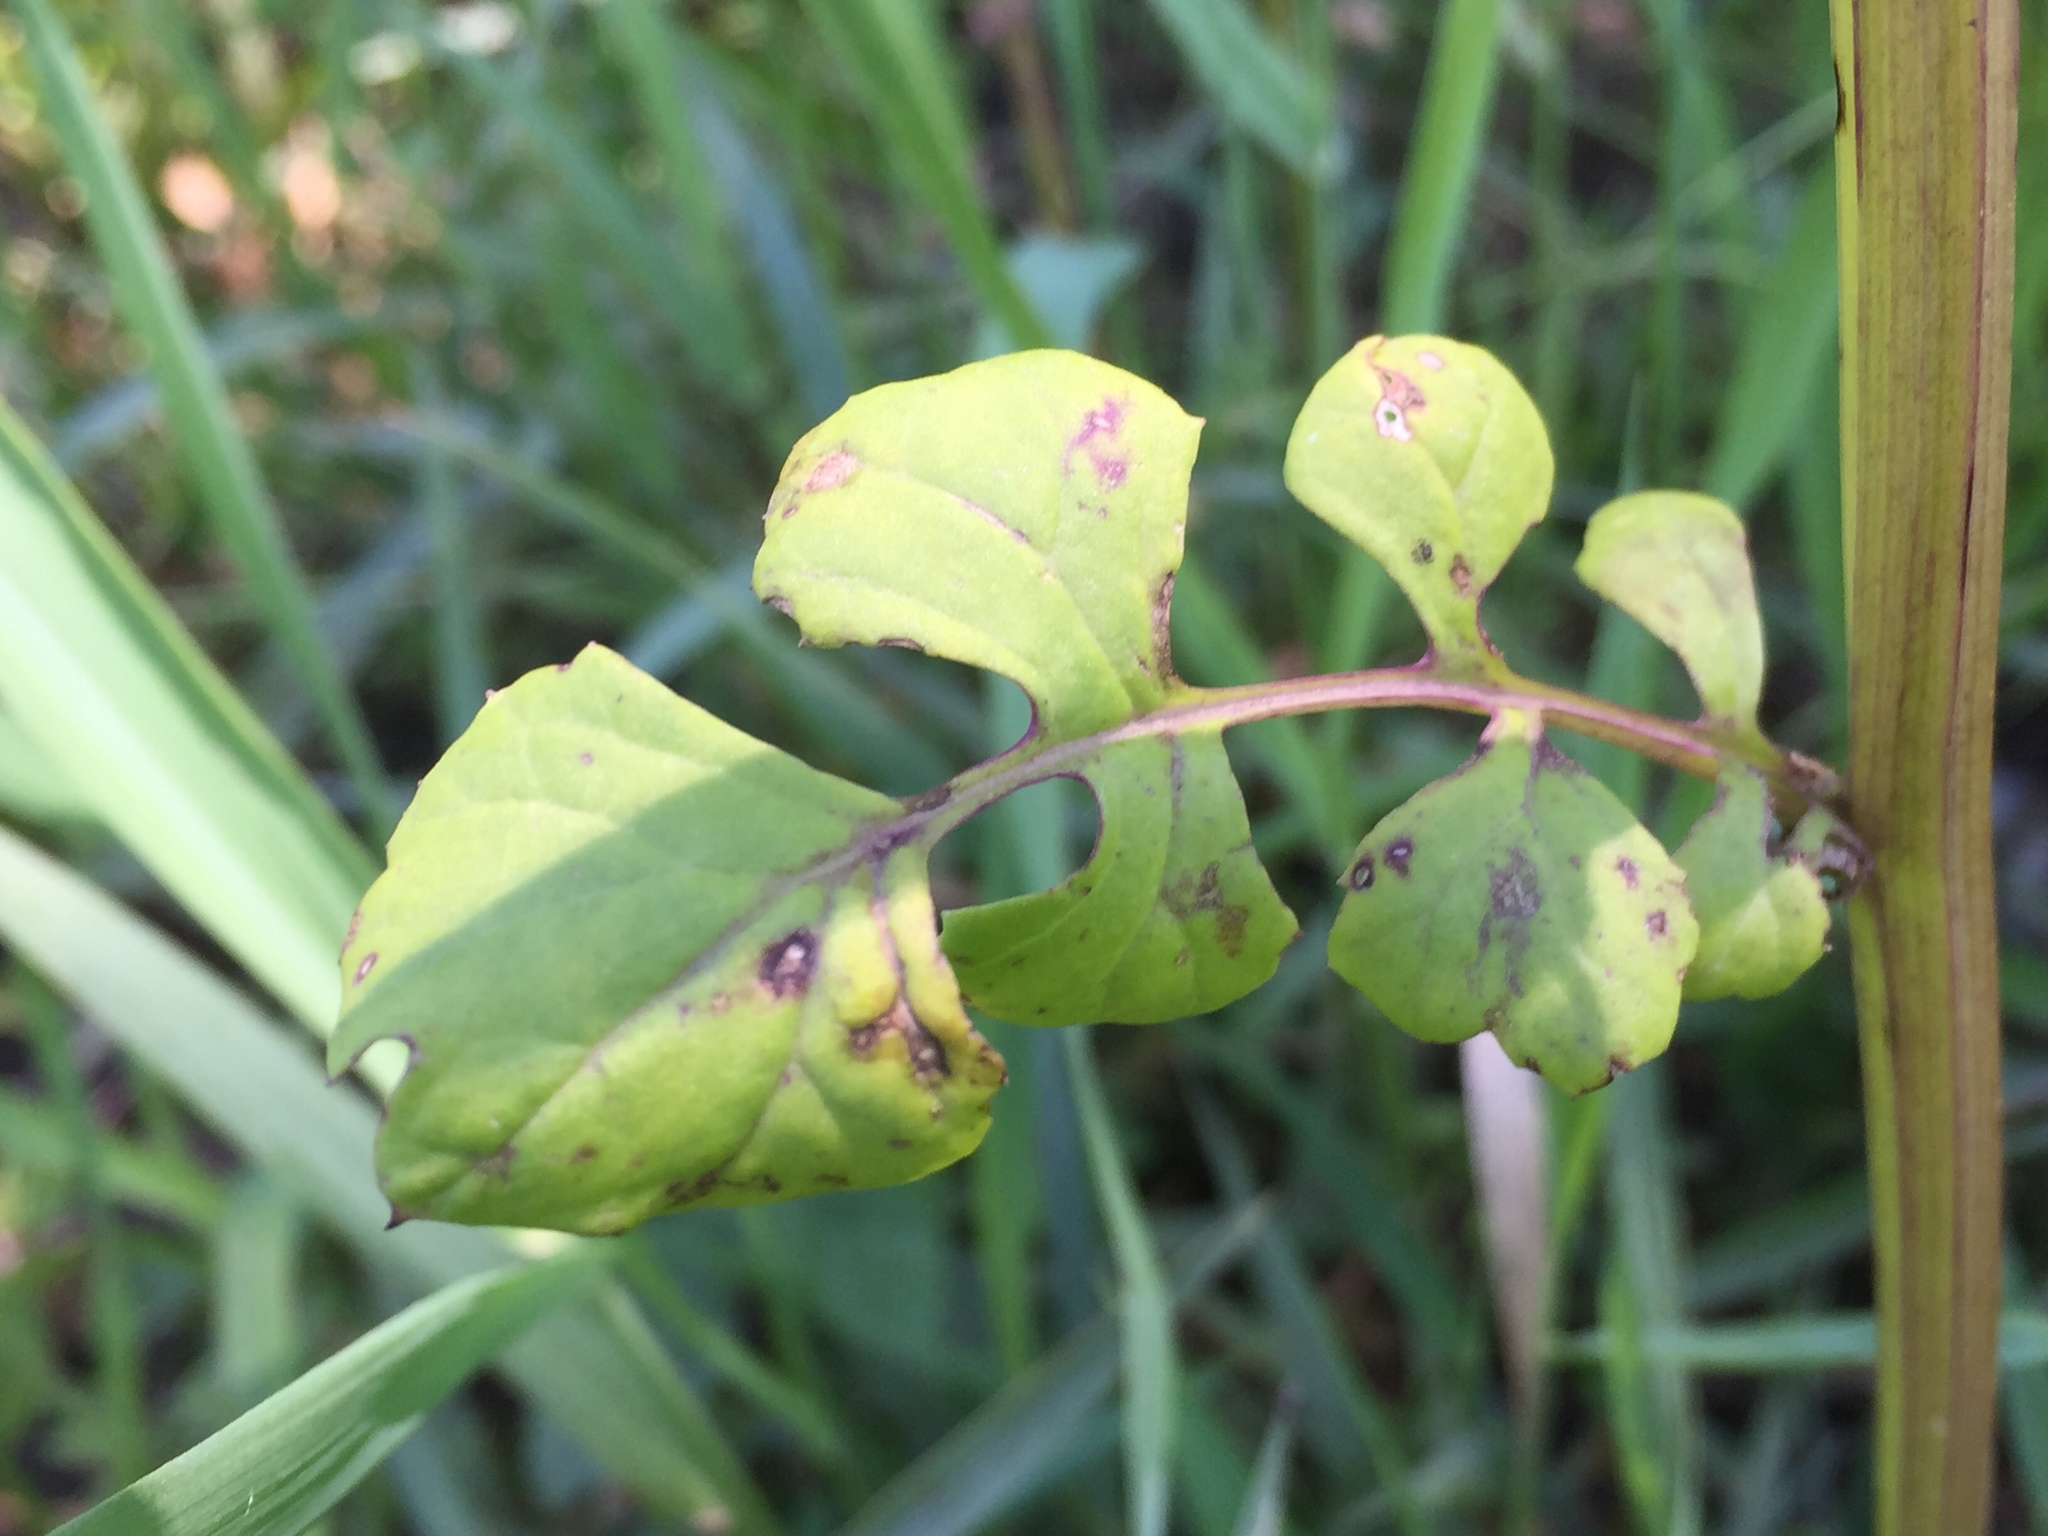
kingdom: Plantae
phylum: Tracheophyta
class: Magnoliopsida
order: Asterales
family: Asteraceae
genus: Packera
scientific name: Packera glabella
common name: Butterweed
